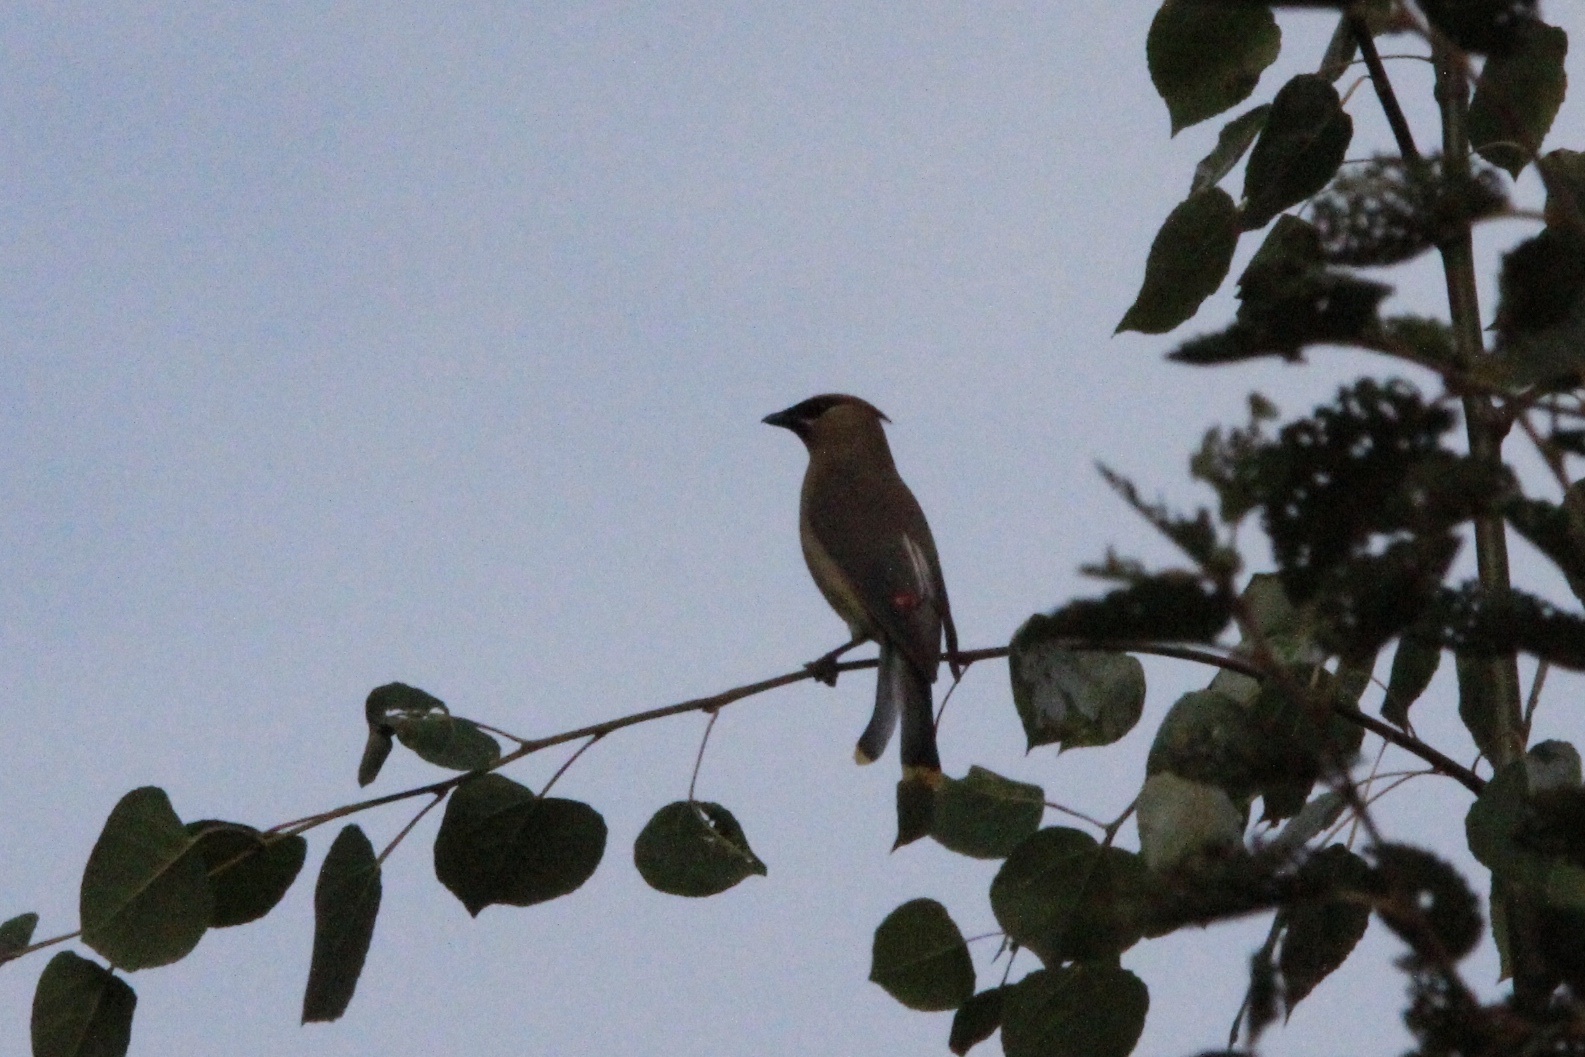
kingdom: Animalia
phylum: Chordata
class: Aves
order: Passeriformes
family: Bombycillidae
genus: Bombycilla
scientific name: Bombycilla cedrorum
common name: Cedar waxwing
